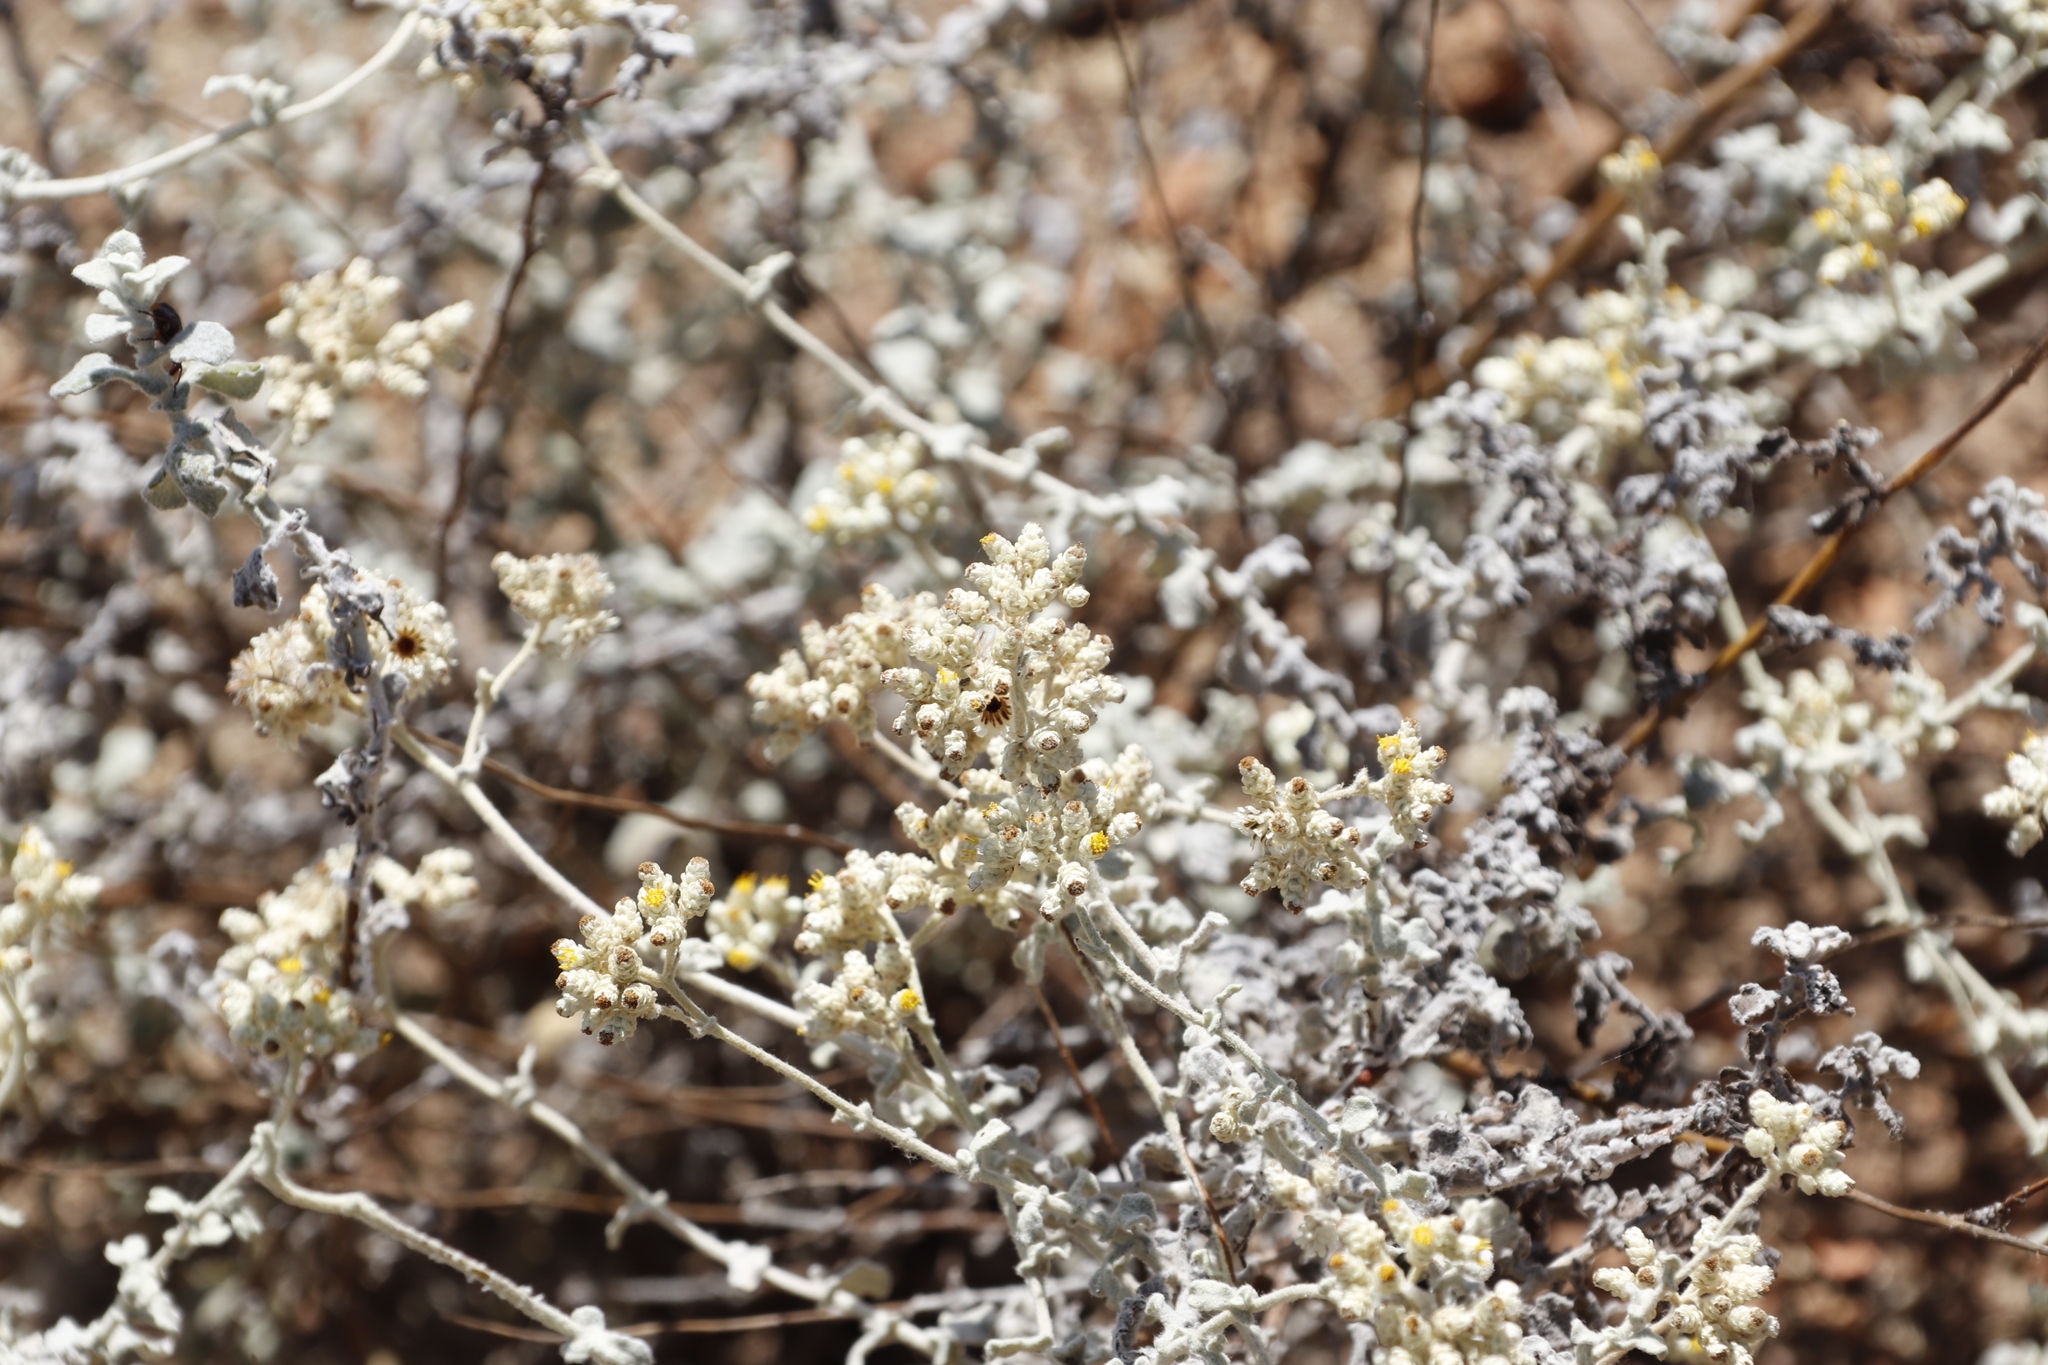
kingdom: Plantae
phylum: Tracheophyta
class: Magnoliopsida
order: Asterales
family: Asteraceae
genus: Helichrysum
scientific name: Helichrysum patulum
